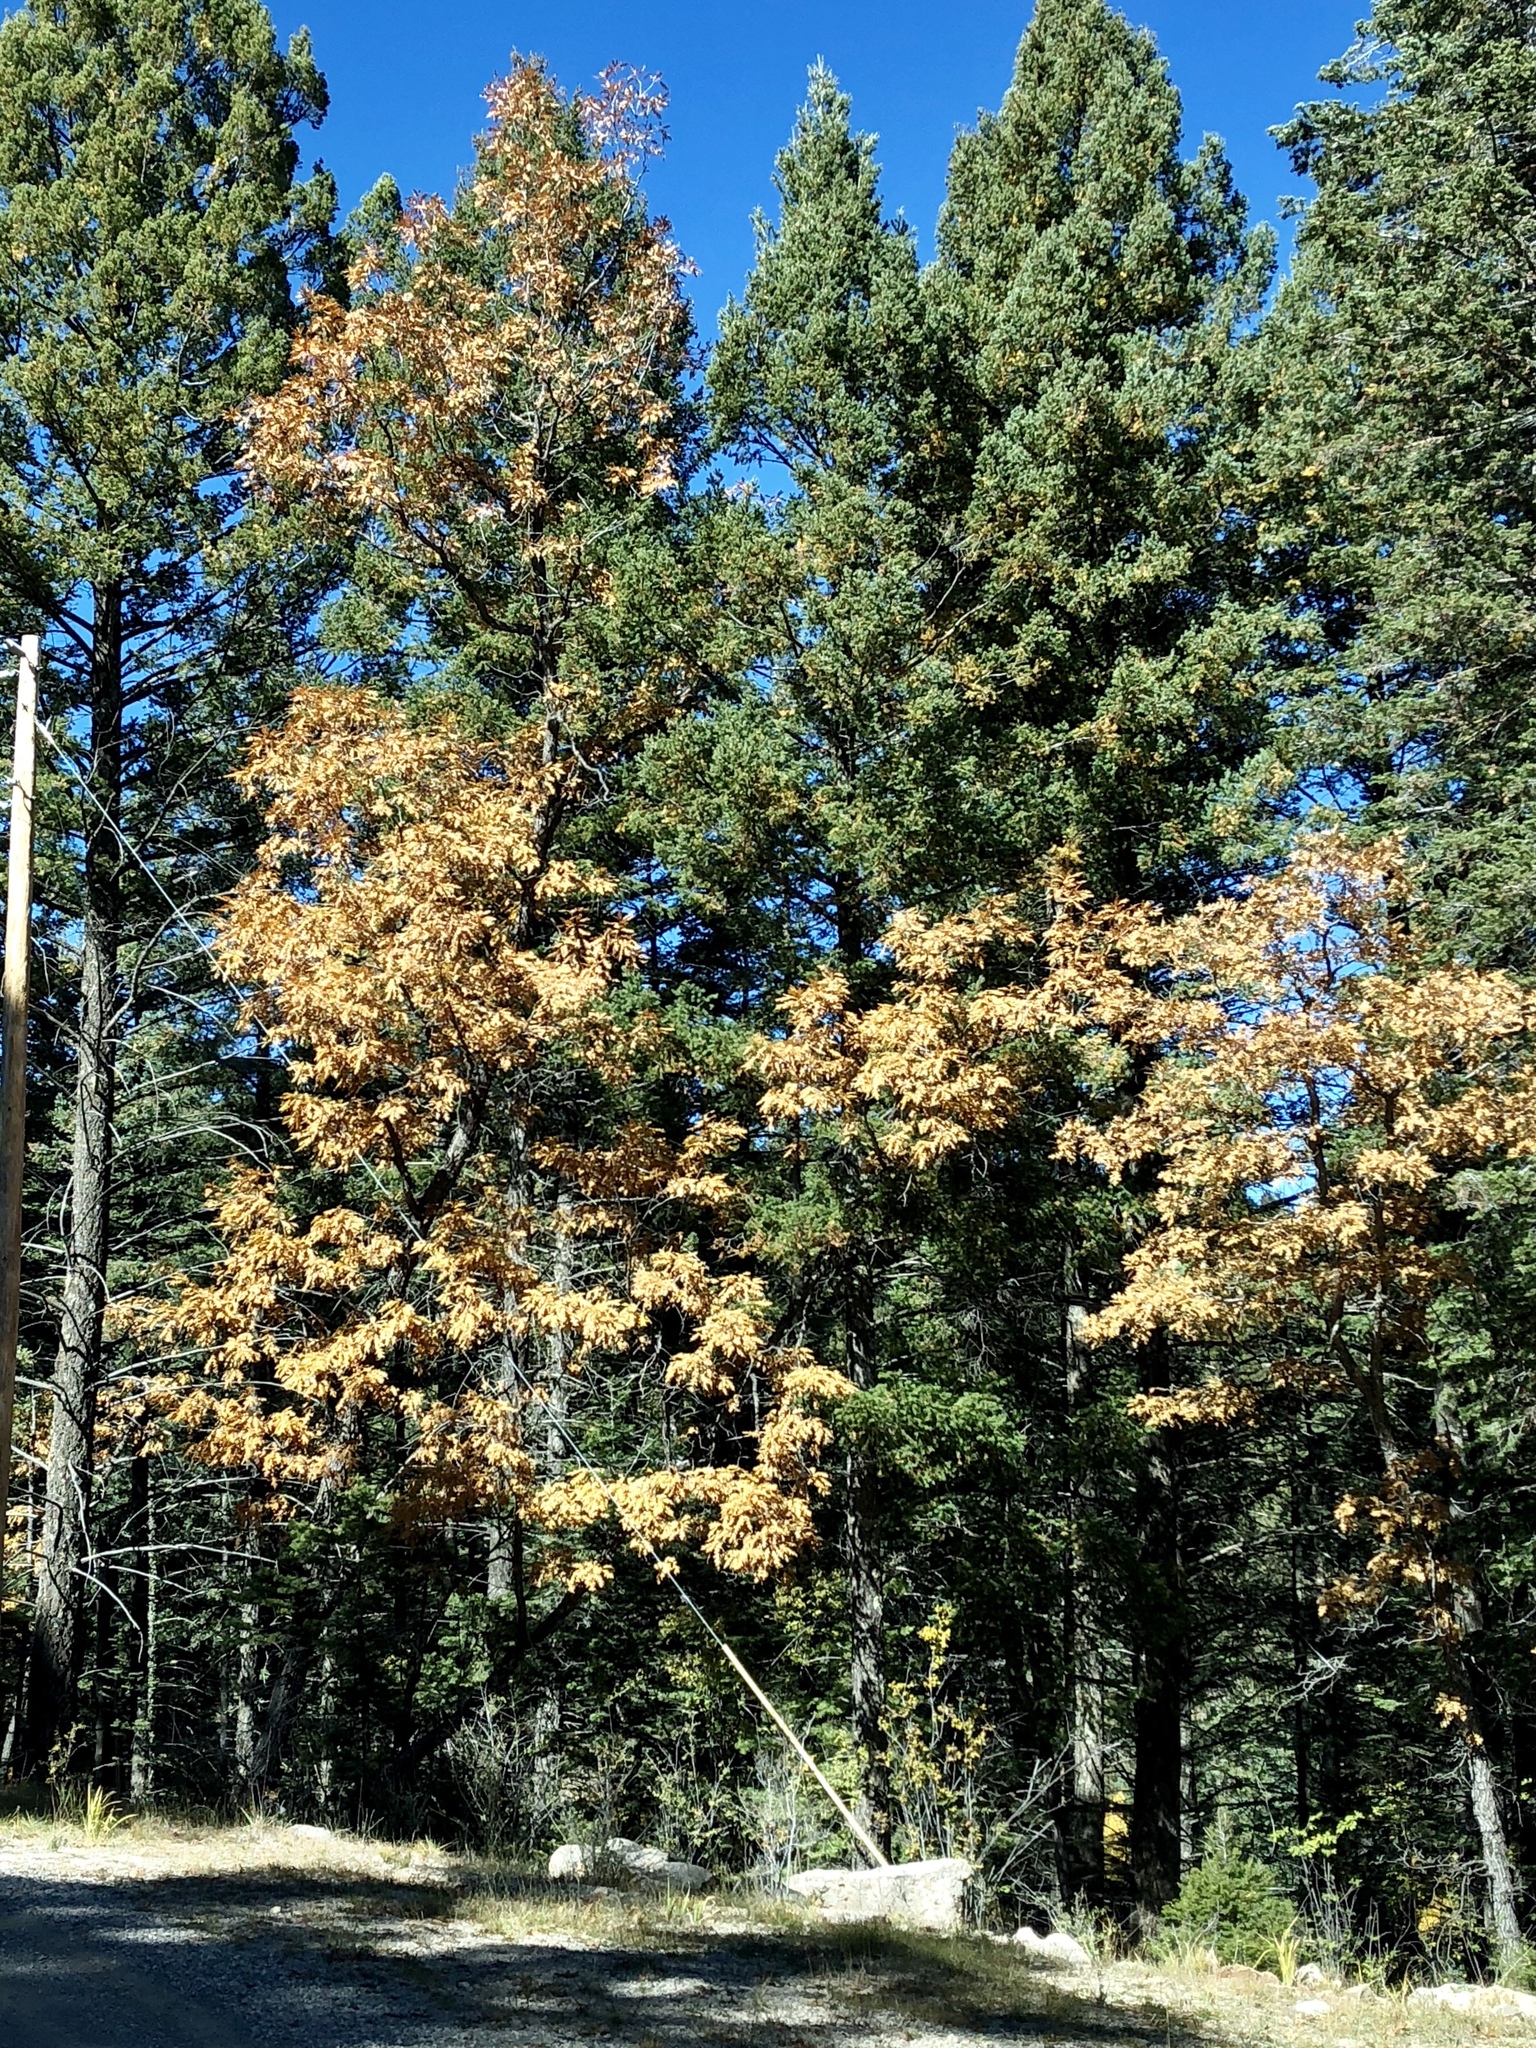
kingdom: Plantae
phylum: Tracheophyta
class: Magnoliopsida
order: Fagales
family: Fagaceae
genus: Quercus
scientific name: Quercus gambelii
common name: Gambel oak
